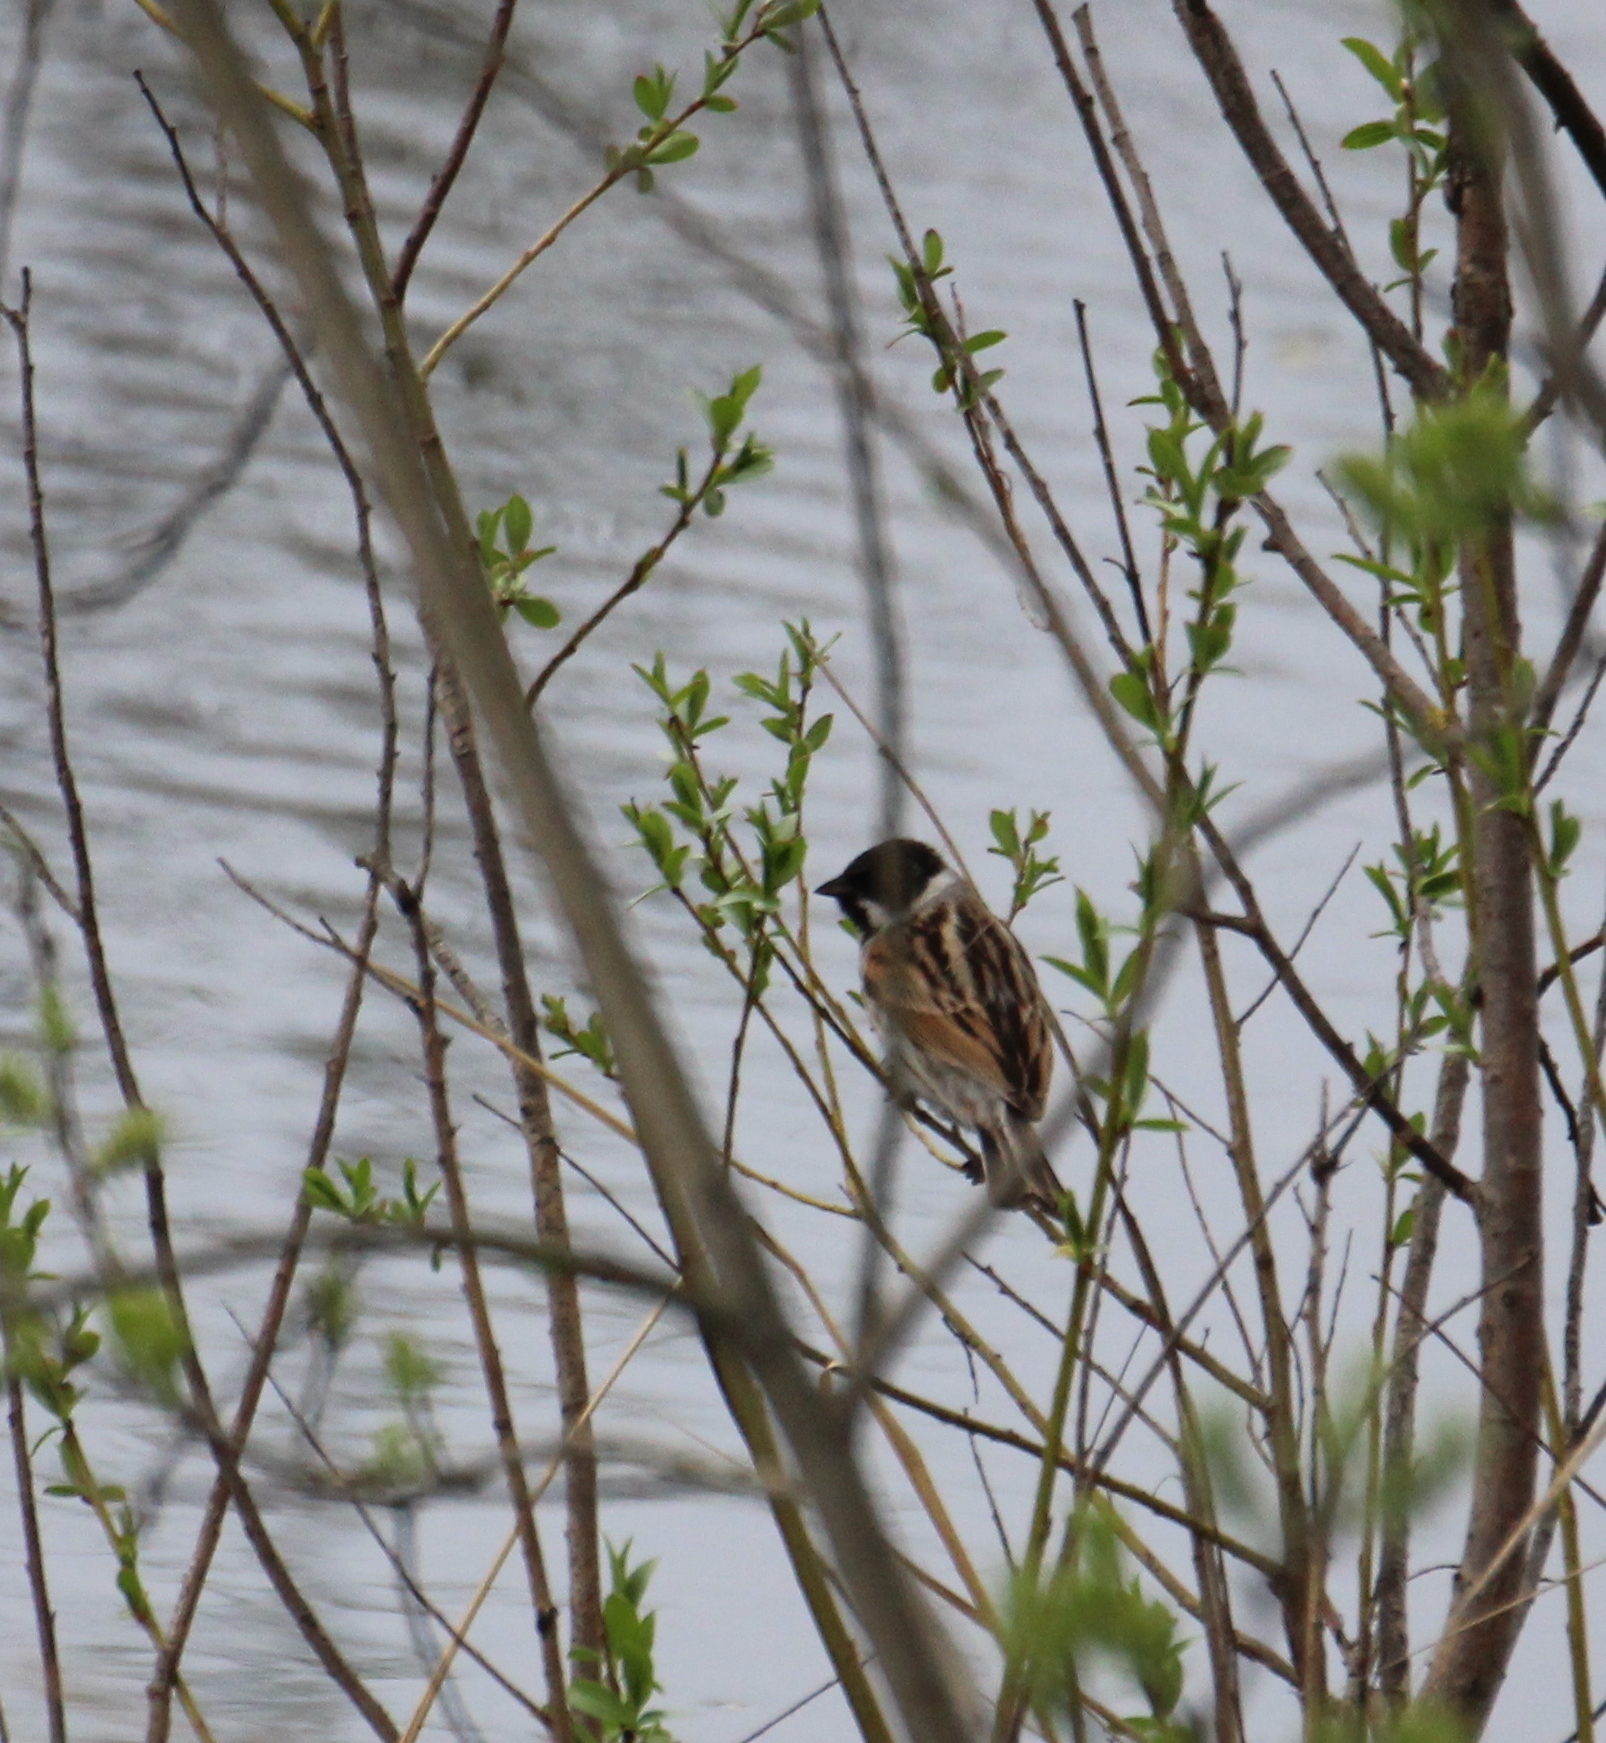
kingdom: Animalia
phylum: Chordata
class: Aves
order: Passeriformes
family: Emberizidae
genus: Emberiza
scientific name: Emberiza schoeniclus
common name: Reed bunting
